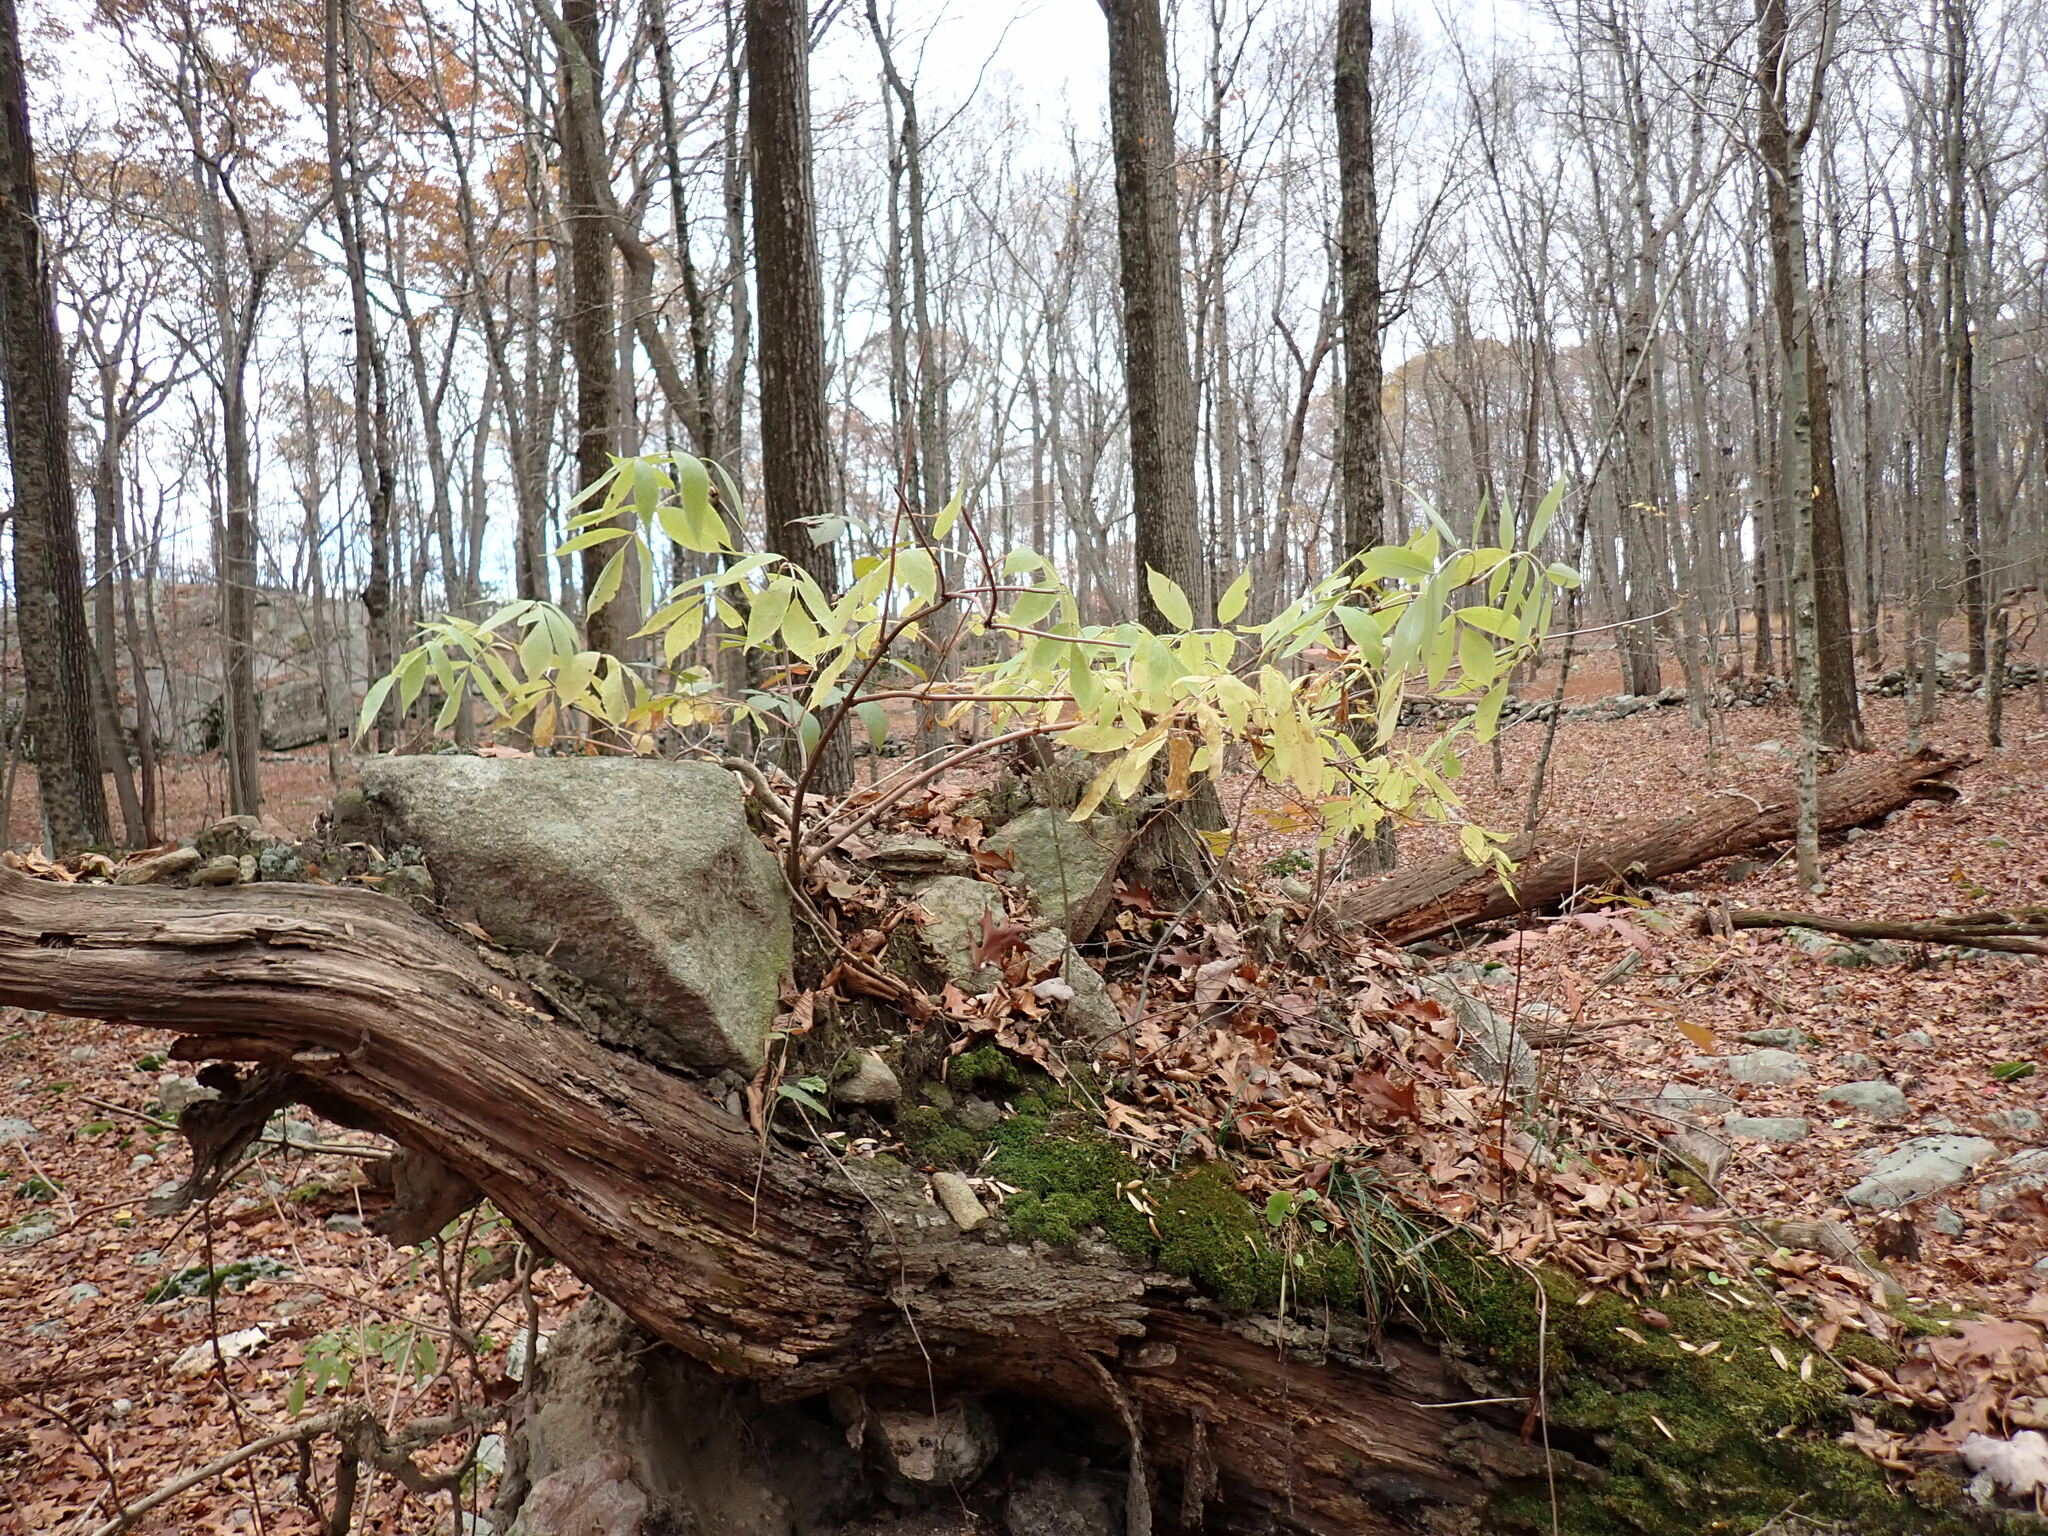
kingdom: Plantae
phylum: Tracheophyta
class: Magnoliopsida
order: Dipsacales
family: Viburnaceae
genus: Sambucus
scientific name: Sambucus racemosa
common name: Red-berried elder
